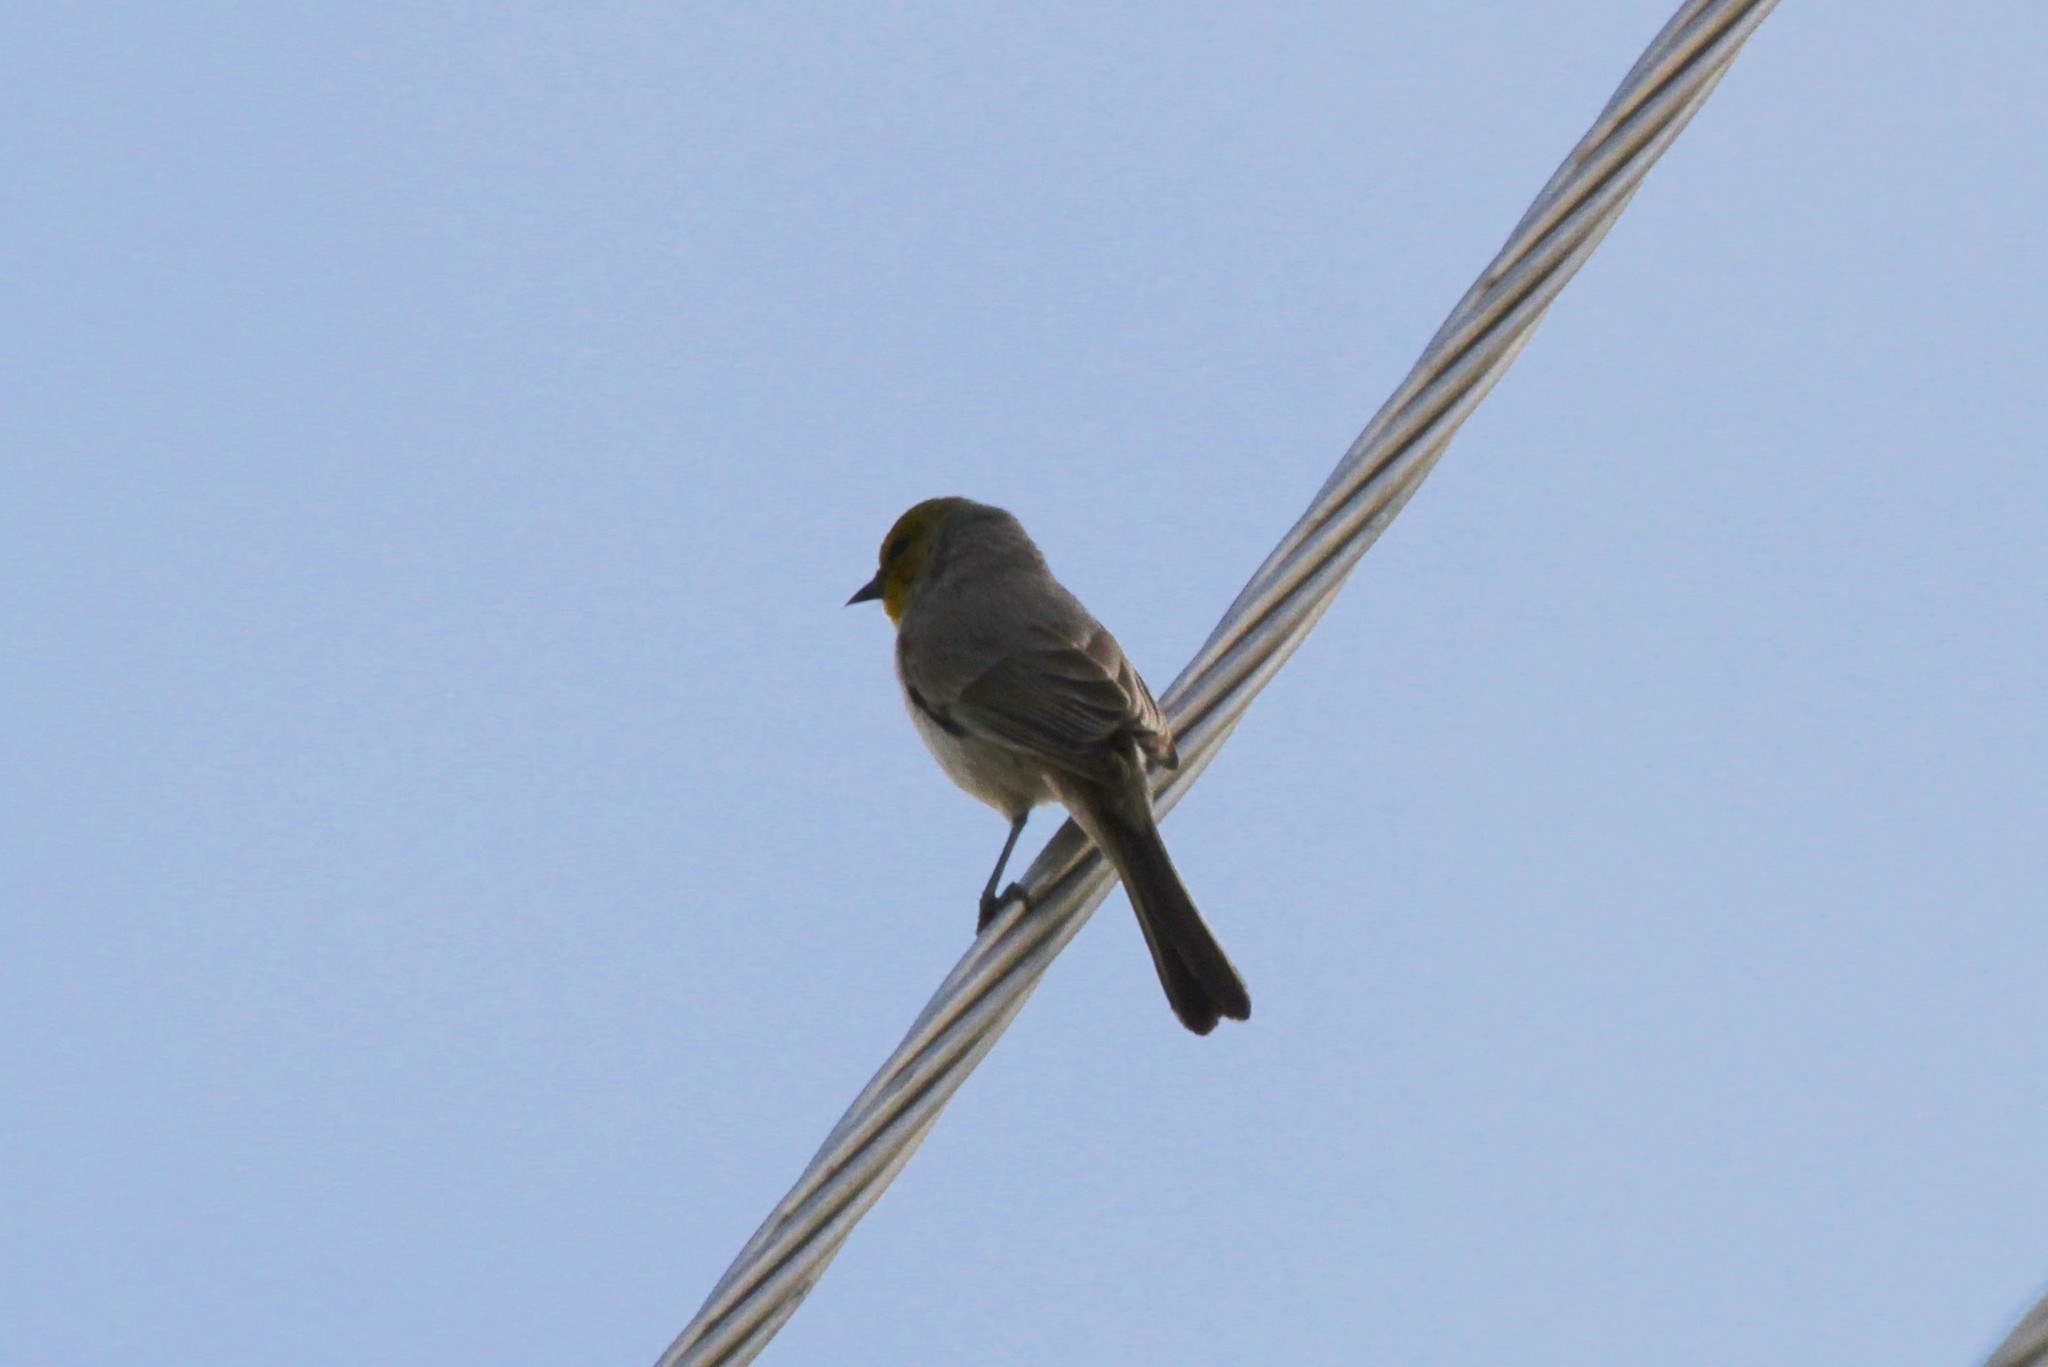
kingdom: Animalia
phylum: Chordata
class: Aves
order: Passeriformes
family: Remizidae
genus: Auriparus
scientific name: Auriparus flaviceps
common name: Verdin
